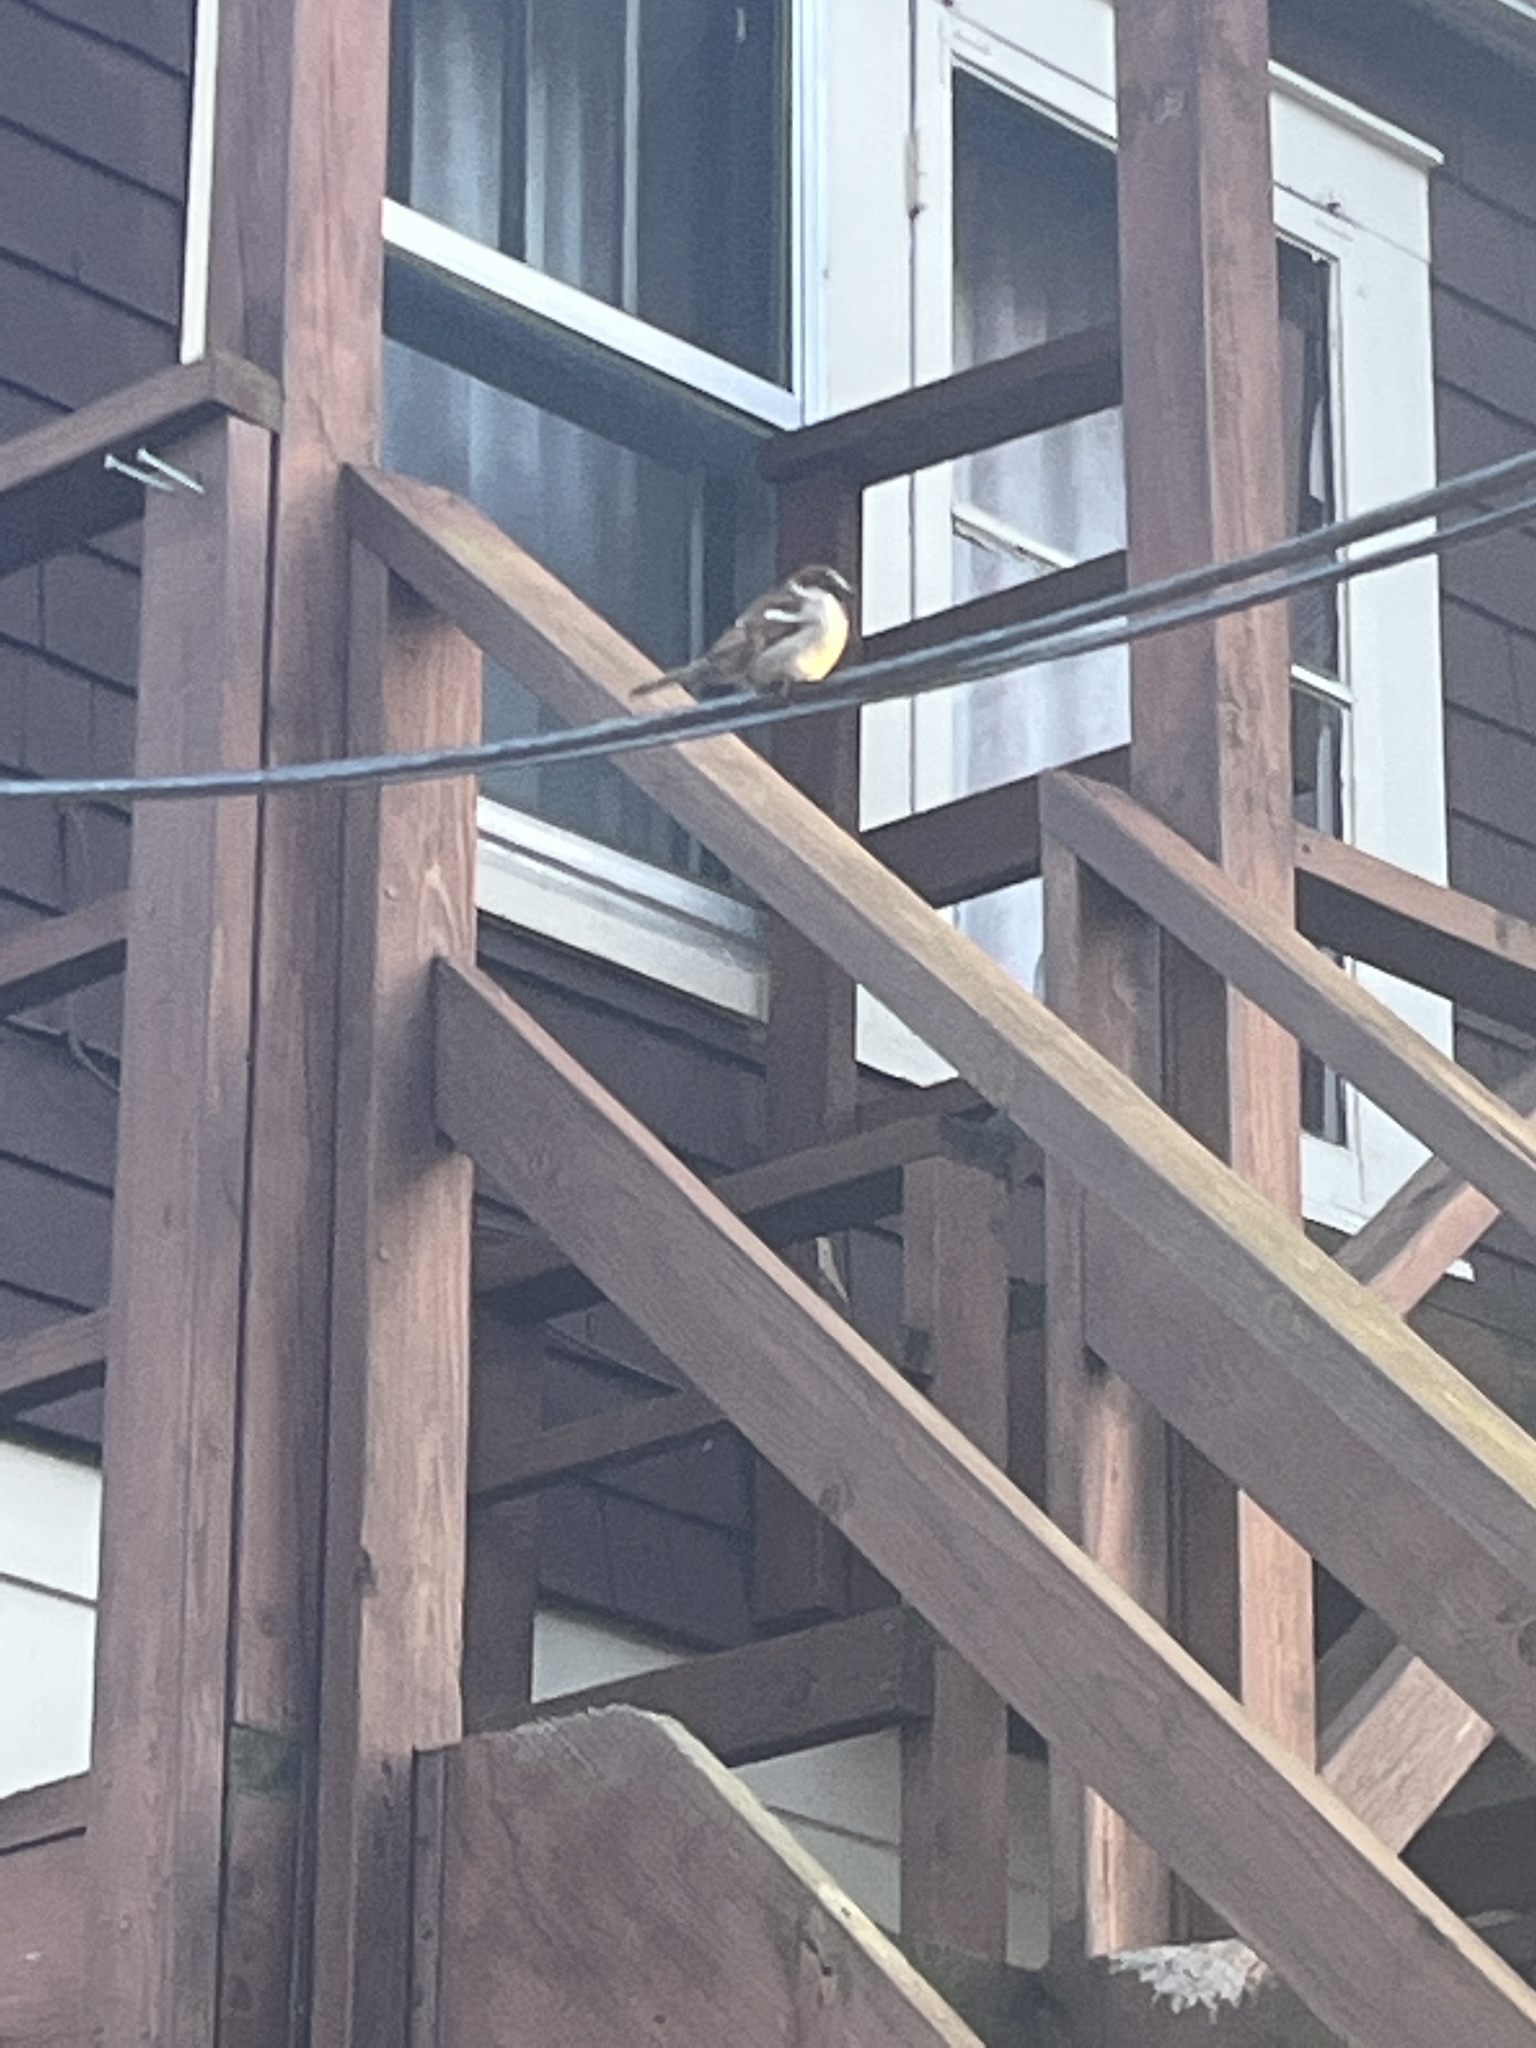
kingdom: Animalia
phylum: Chordata
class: Aves
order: Passeriformes
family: Passeridae
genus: Passer
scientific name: Passer domesticus
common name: House sparrow
